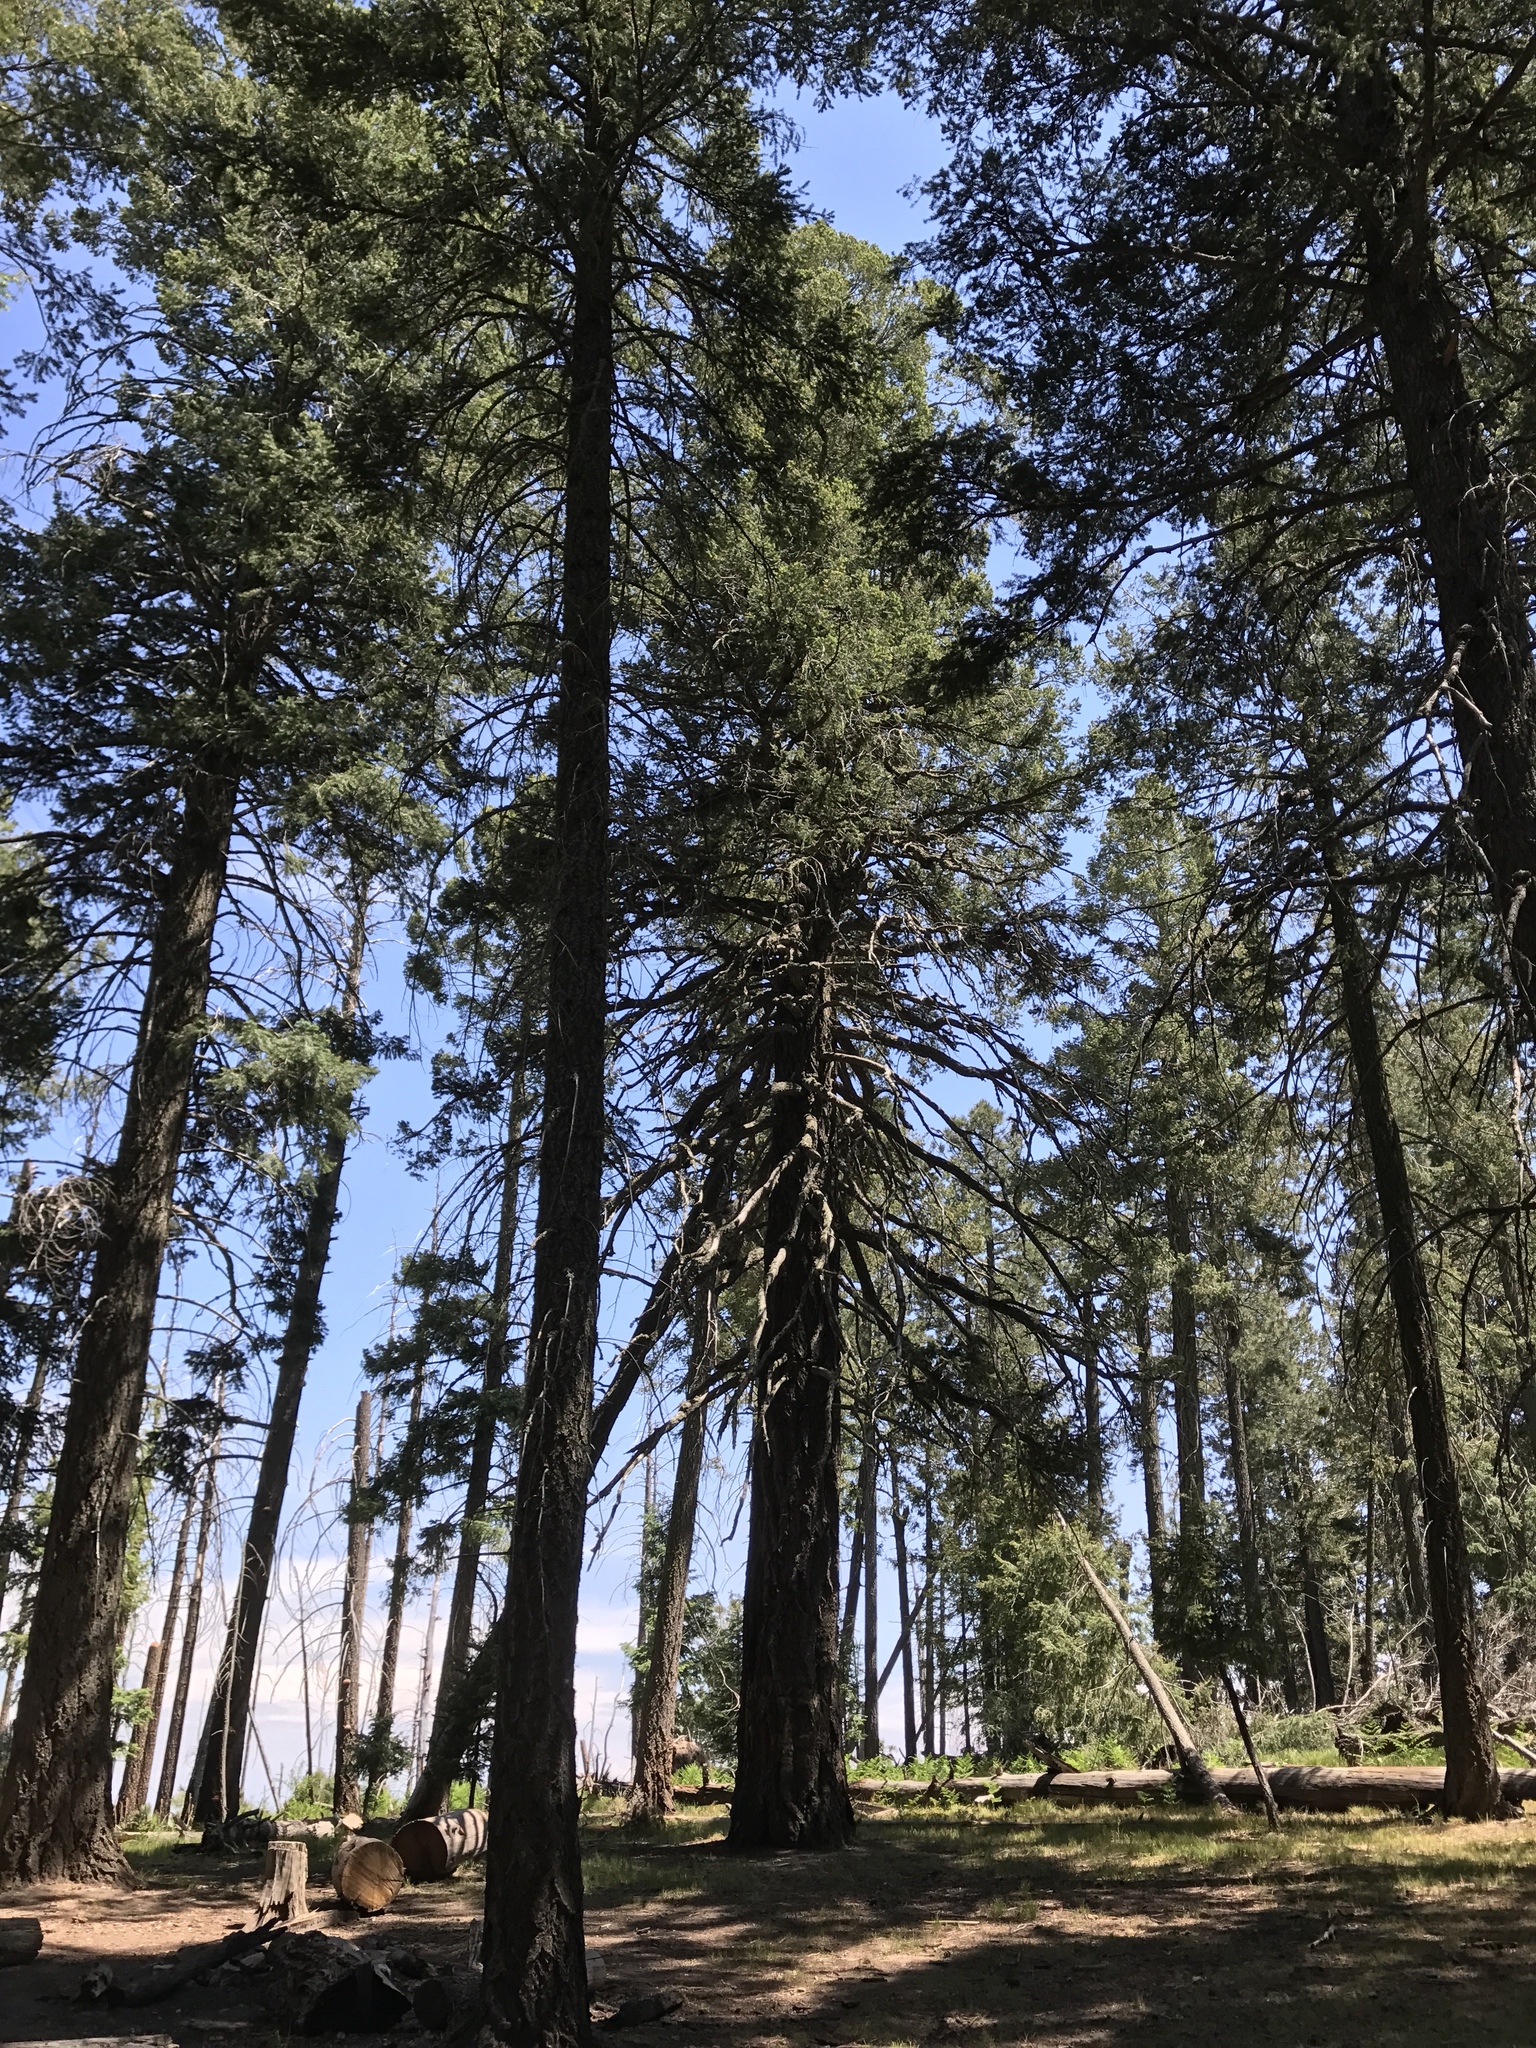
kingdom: Plantae
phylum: Tracheophyta
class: Pinopsida
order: Pinales
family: Pinaceae
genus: Pseudotsuga
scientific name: Pseudotsuga menziesii
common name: Douglas fir
